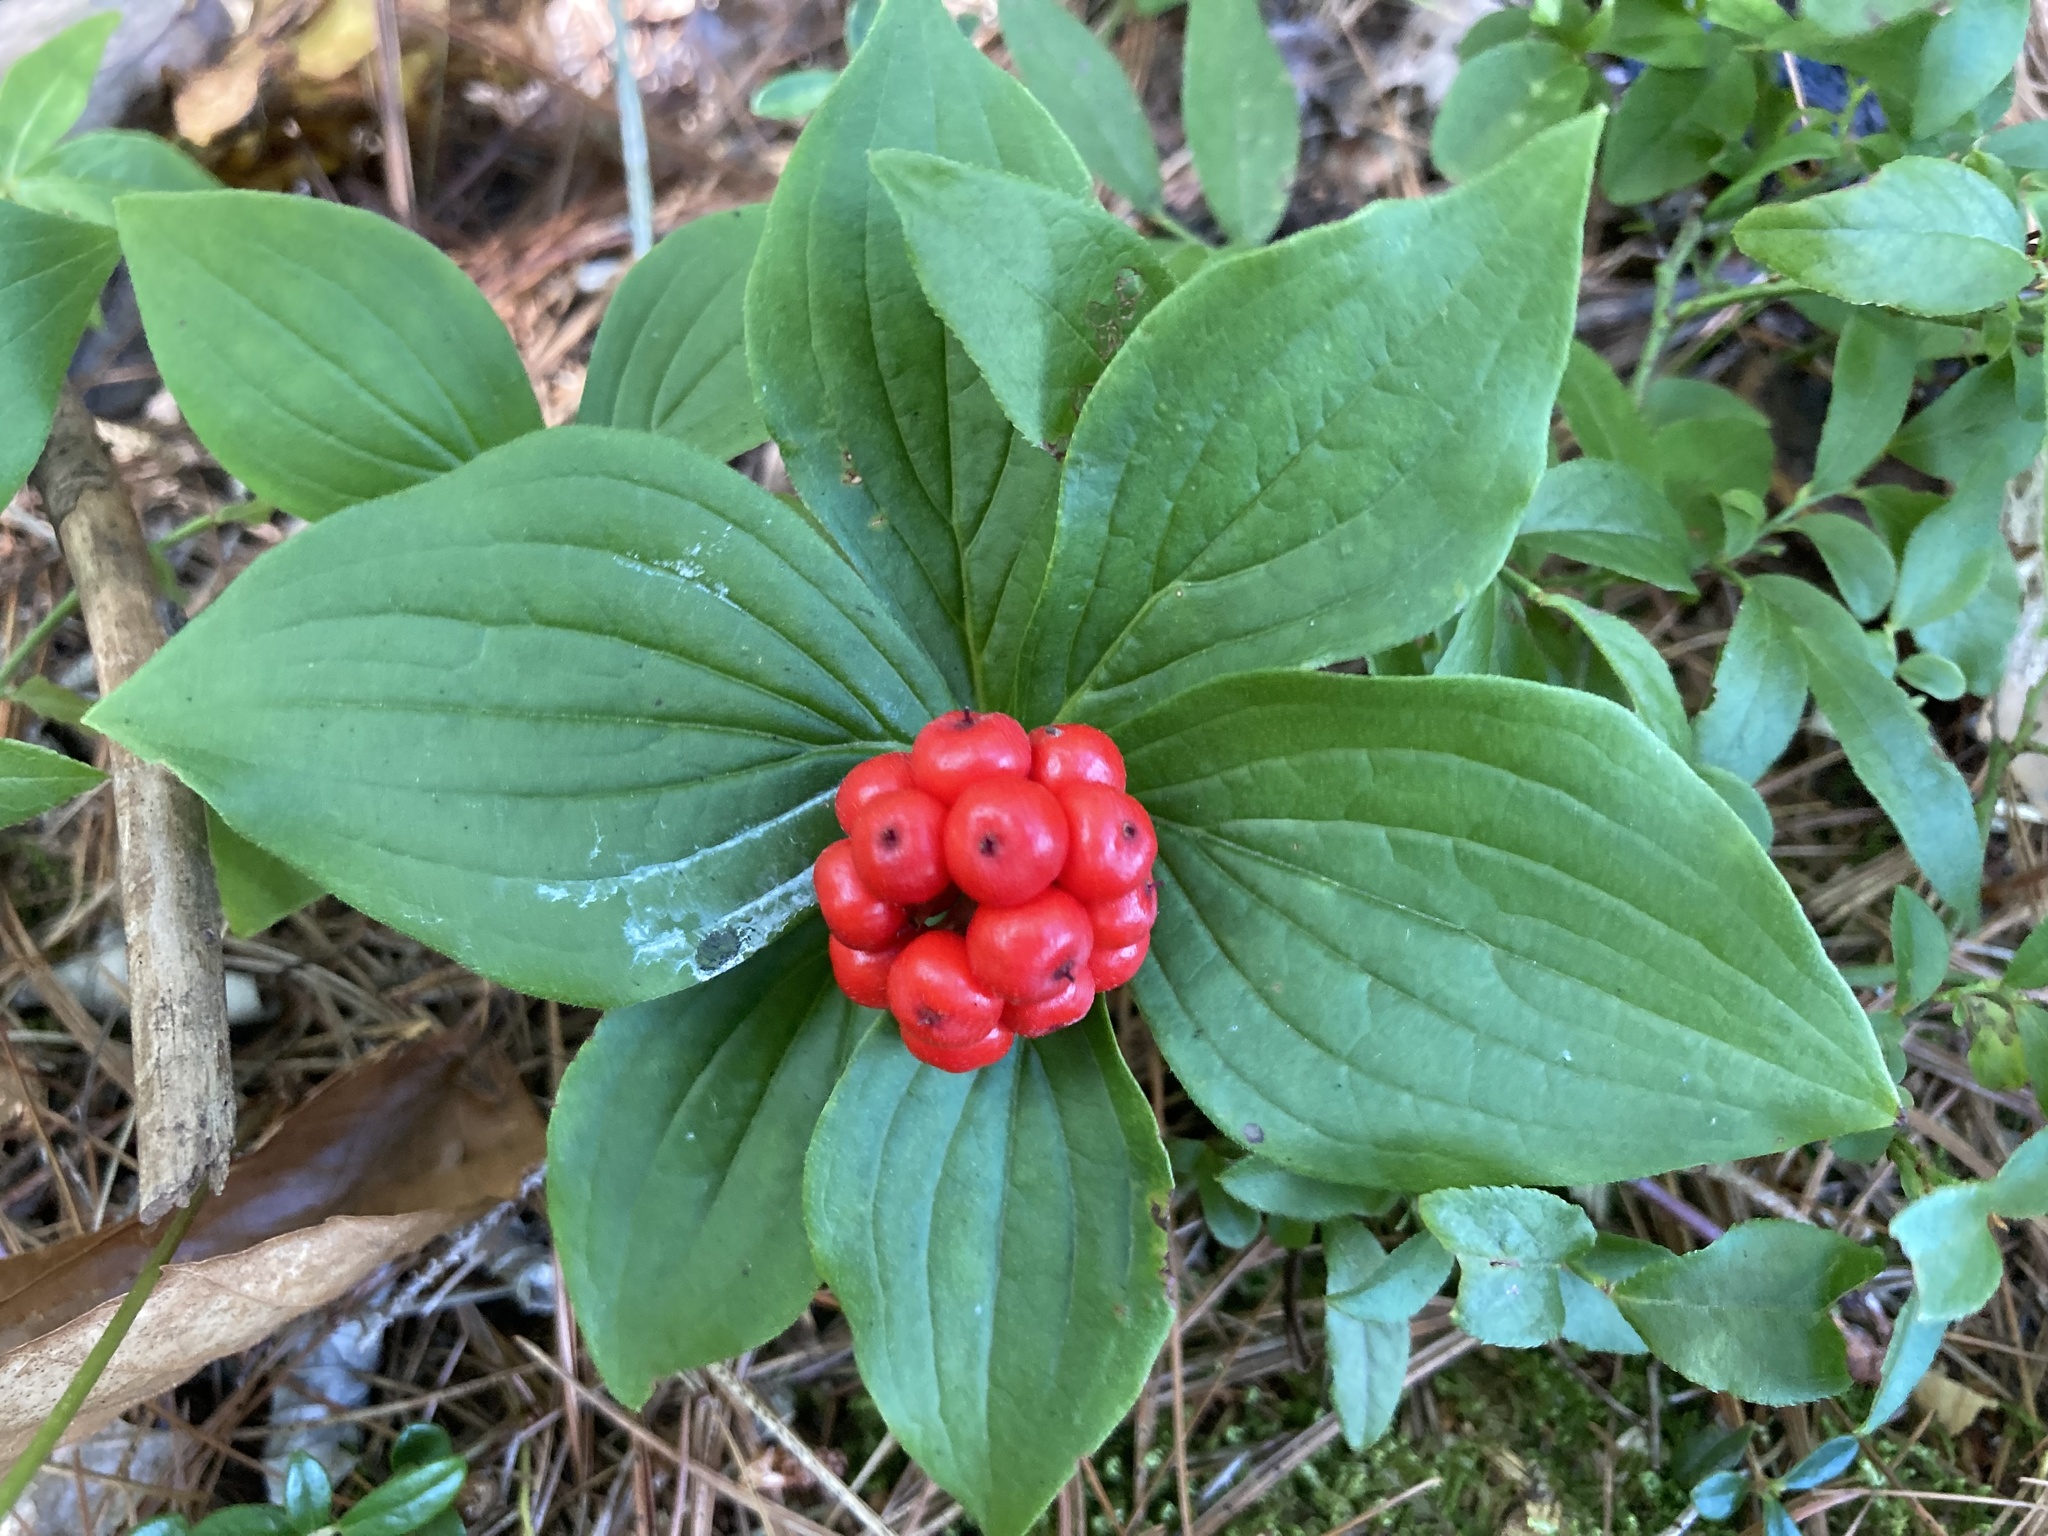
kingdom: Plantae
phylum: Tracheophyta
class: Magnoliopsida
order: Cornales
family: Cornaceae
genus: Cornus
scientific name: Cornus canadensis
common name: Creeping dogwood
